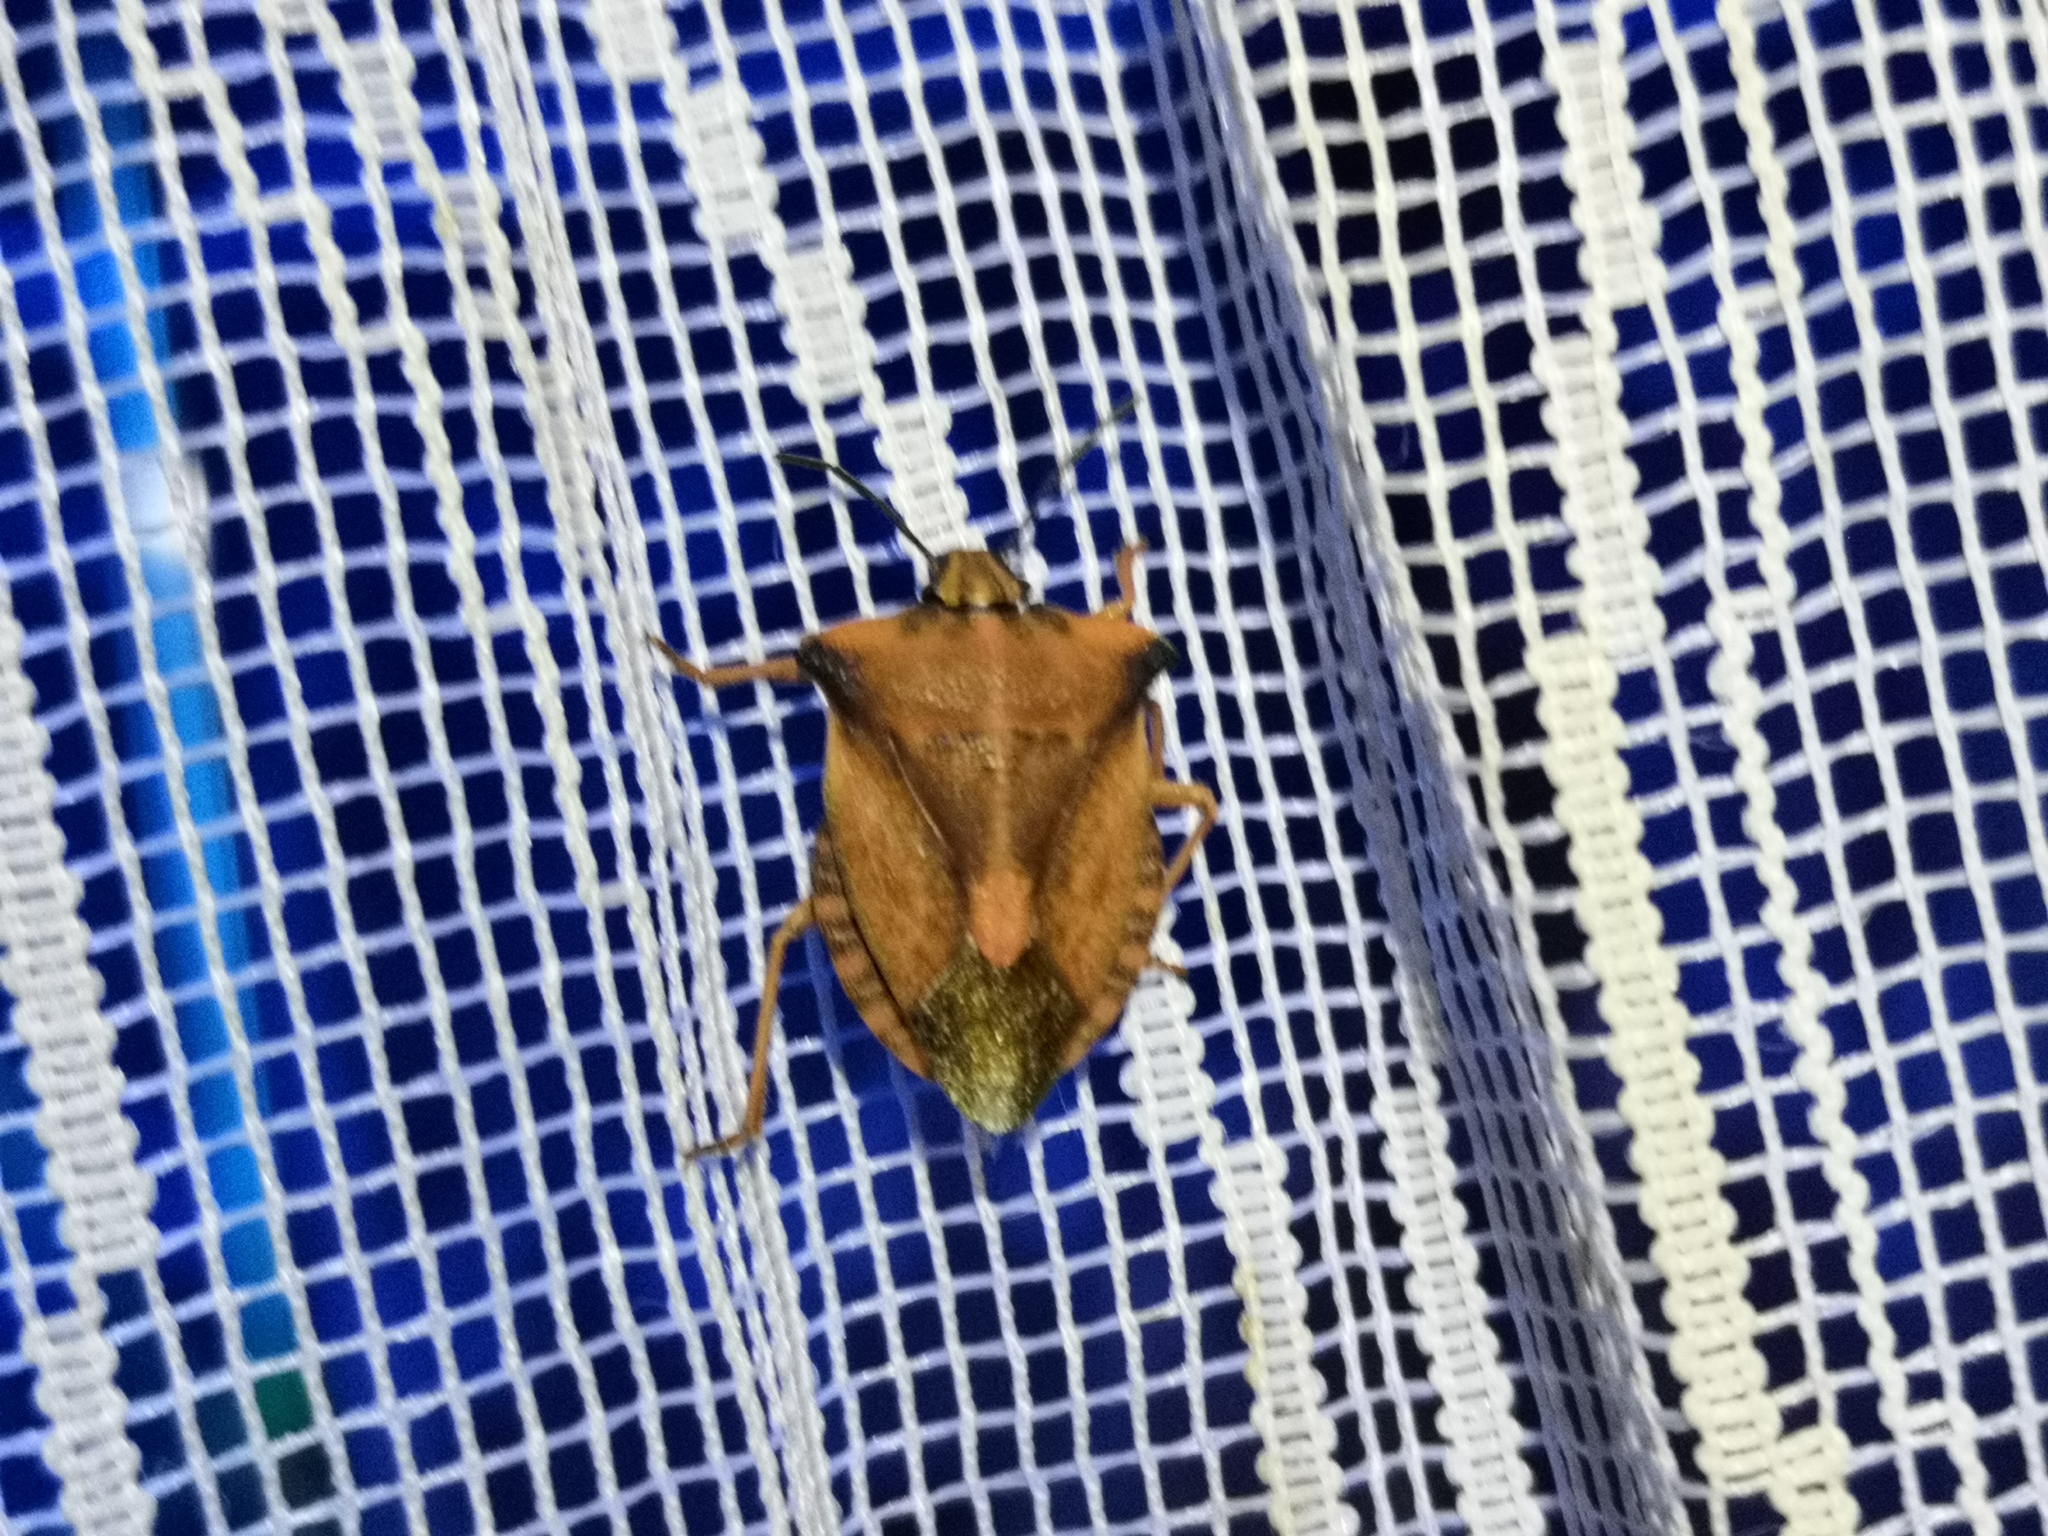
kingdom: Animalia
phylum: Arthropoda
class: Insecta
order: Hemiptera
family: Pentatomidae
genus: Carpocoris
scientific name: Carpocoris fuscispinus
